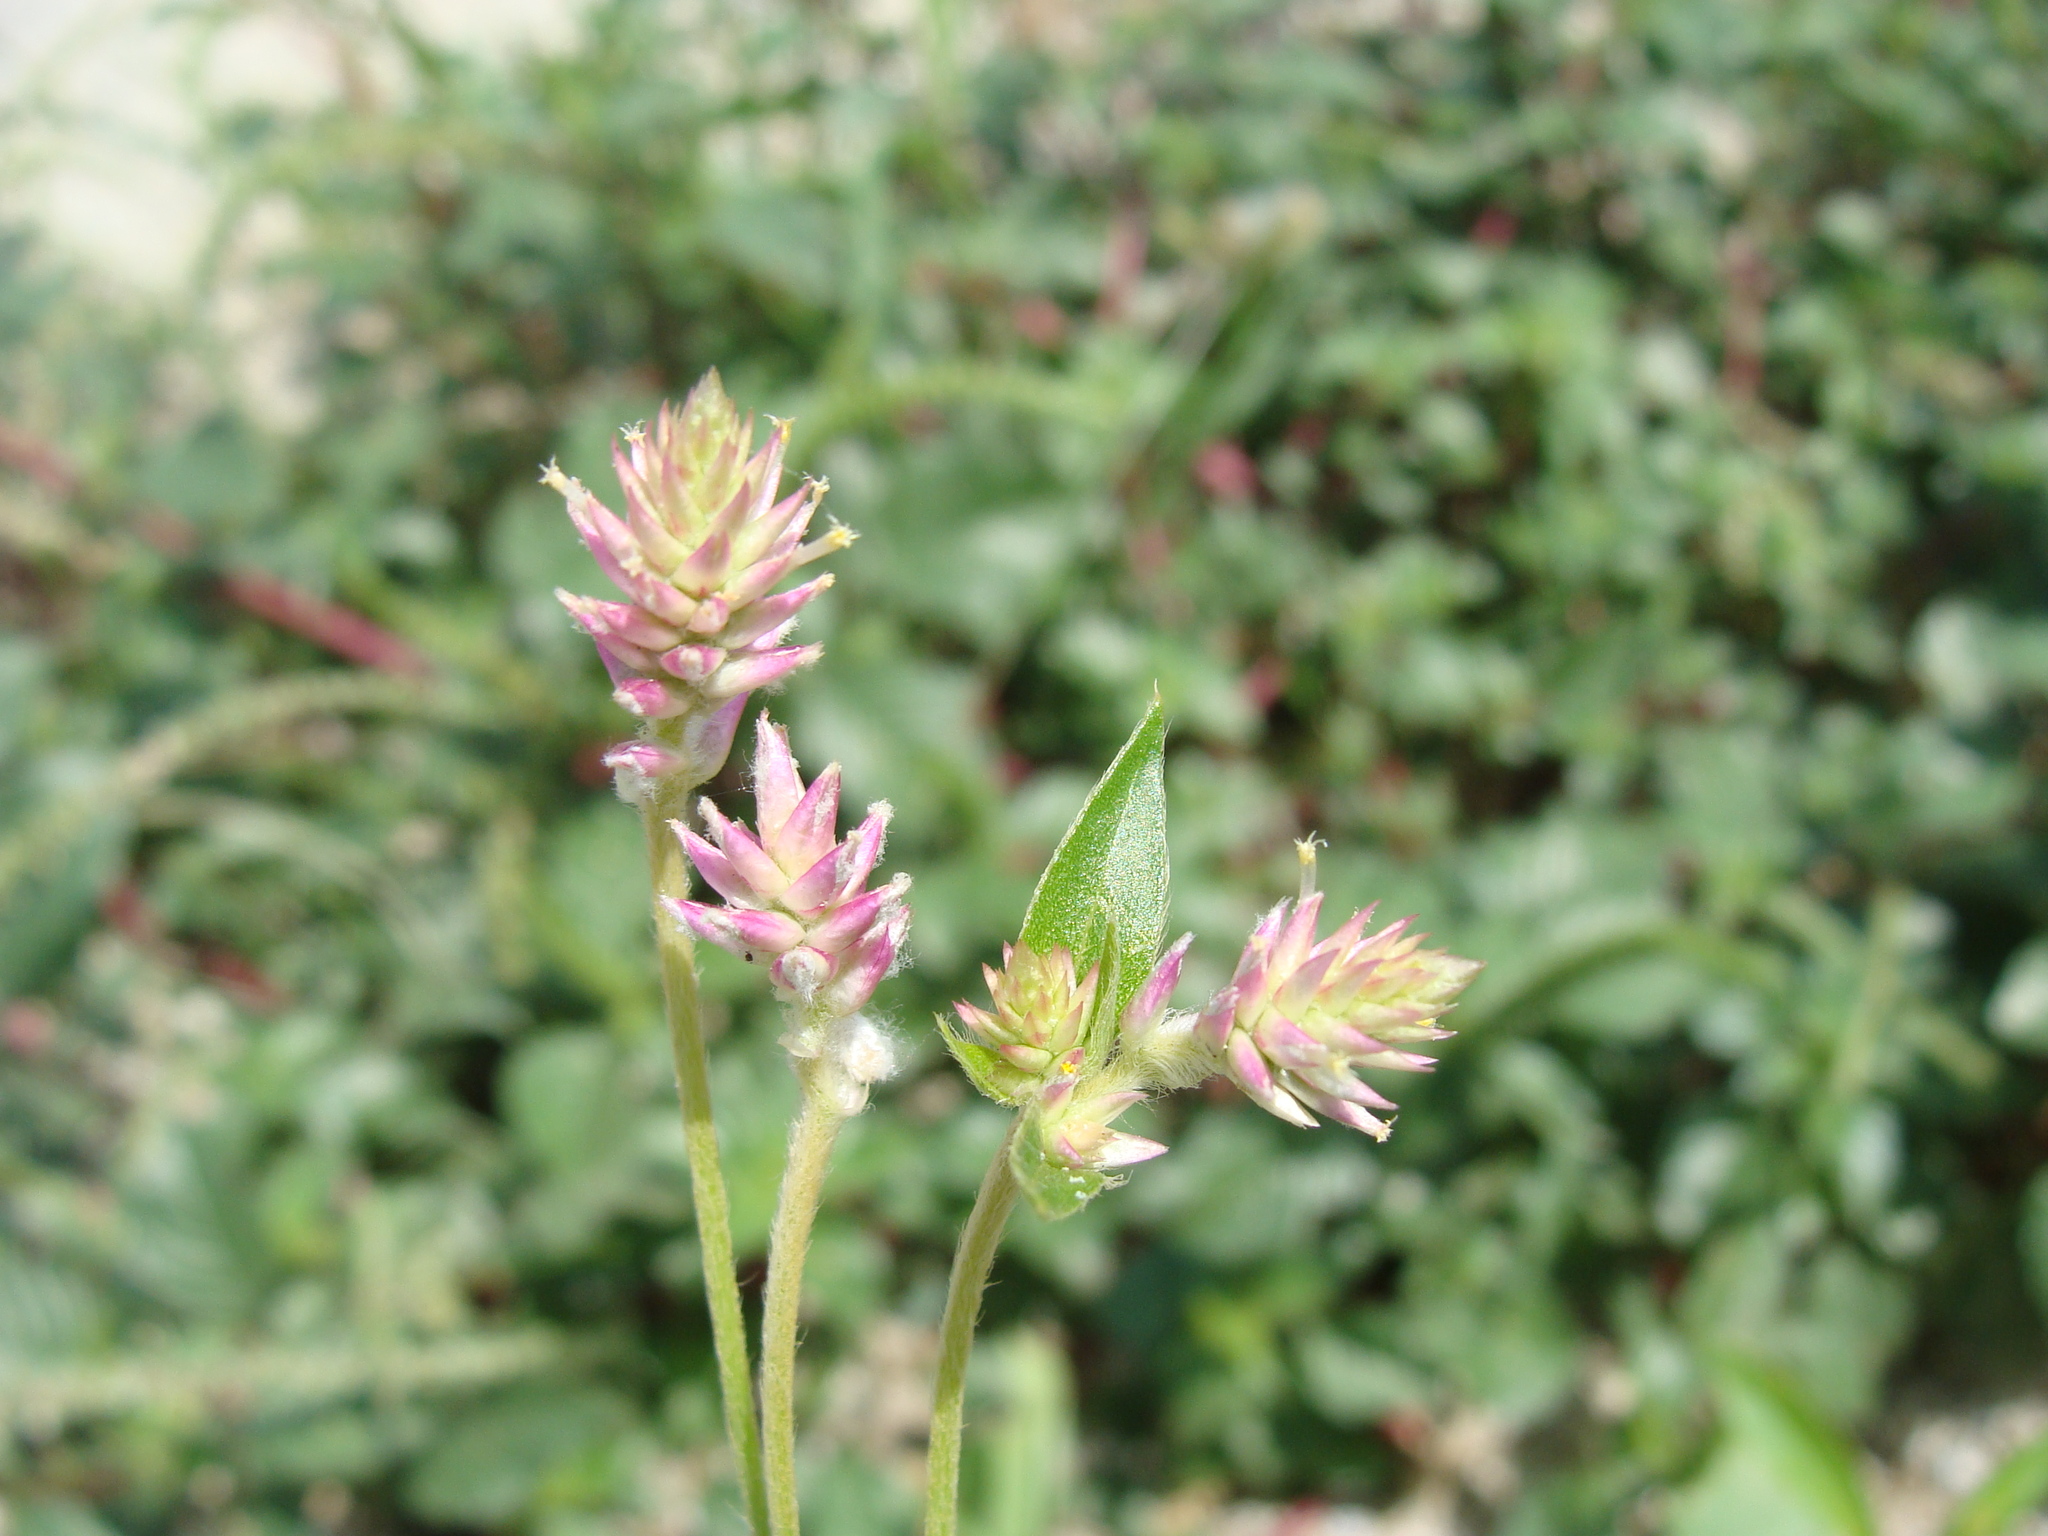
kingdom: Plantae
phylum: Tracheophyta
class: Magnoliopsida
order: Caryophyllales
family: Amaranthaceae
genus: Gomphrena
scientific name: Gomphrena sonorae
